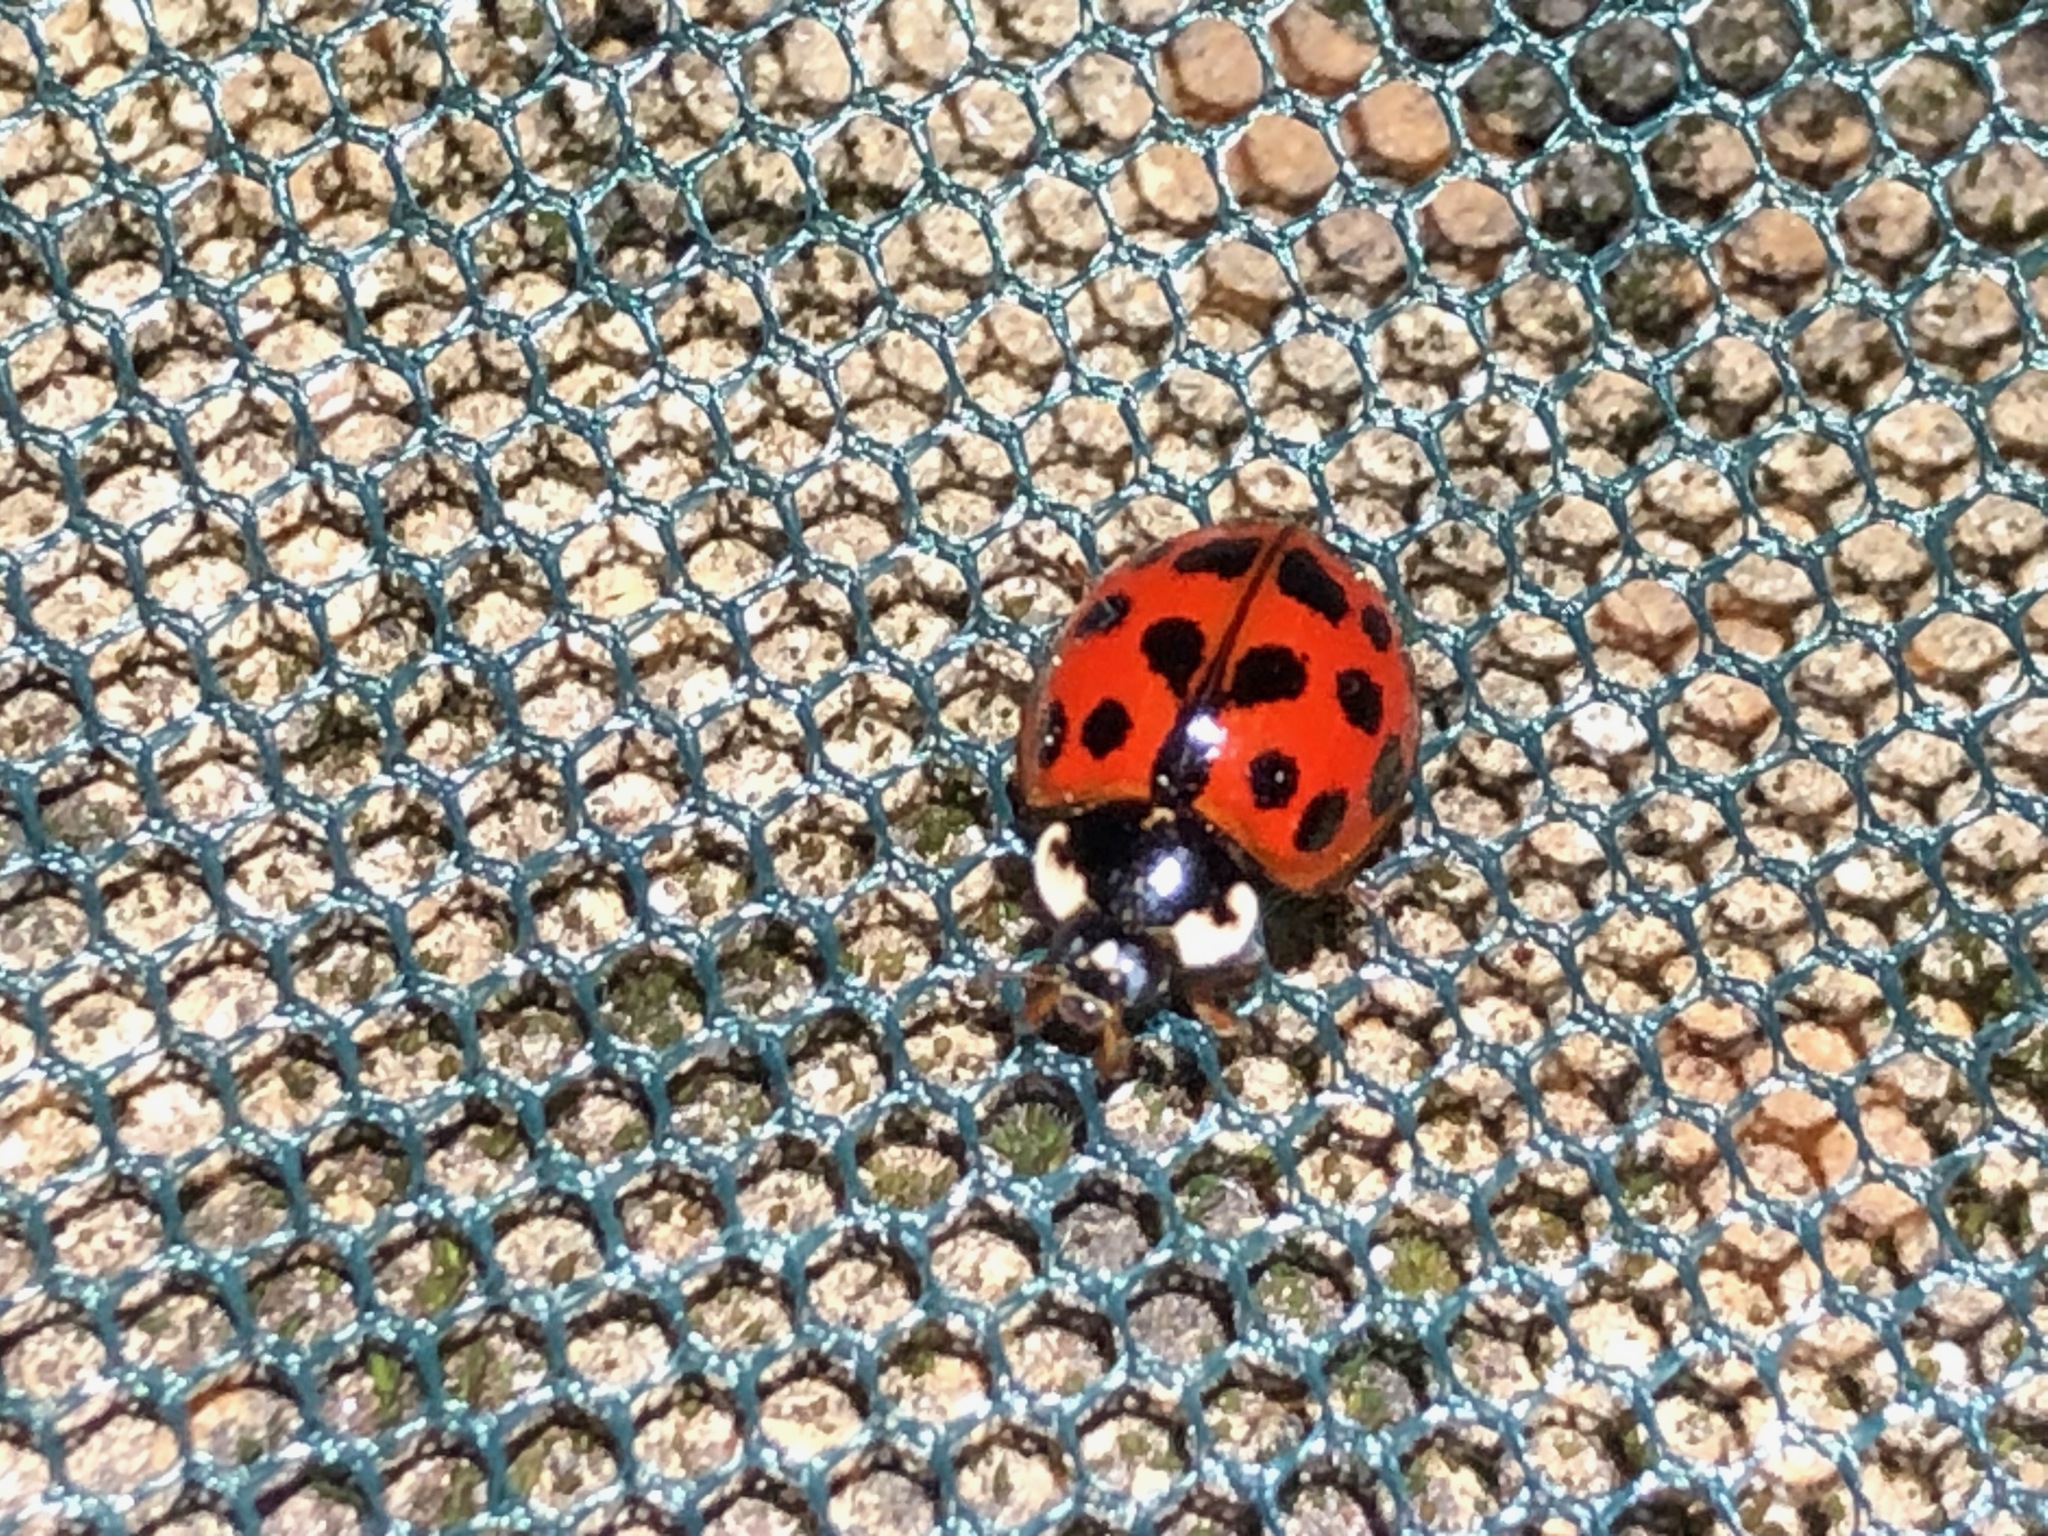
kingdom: Animalia
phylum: Arthropoda
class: Insecta
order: Coleoptera
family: Coccinellidae
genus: Harmonia
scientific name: Harmonia axyridis
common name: Harlequin ladybird
